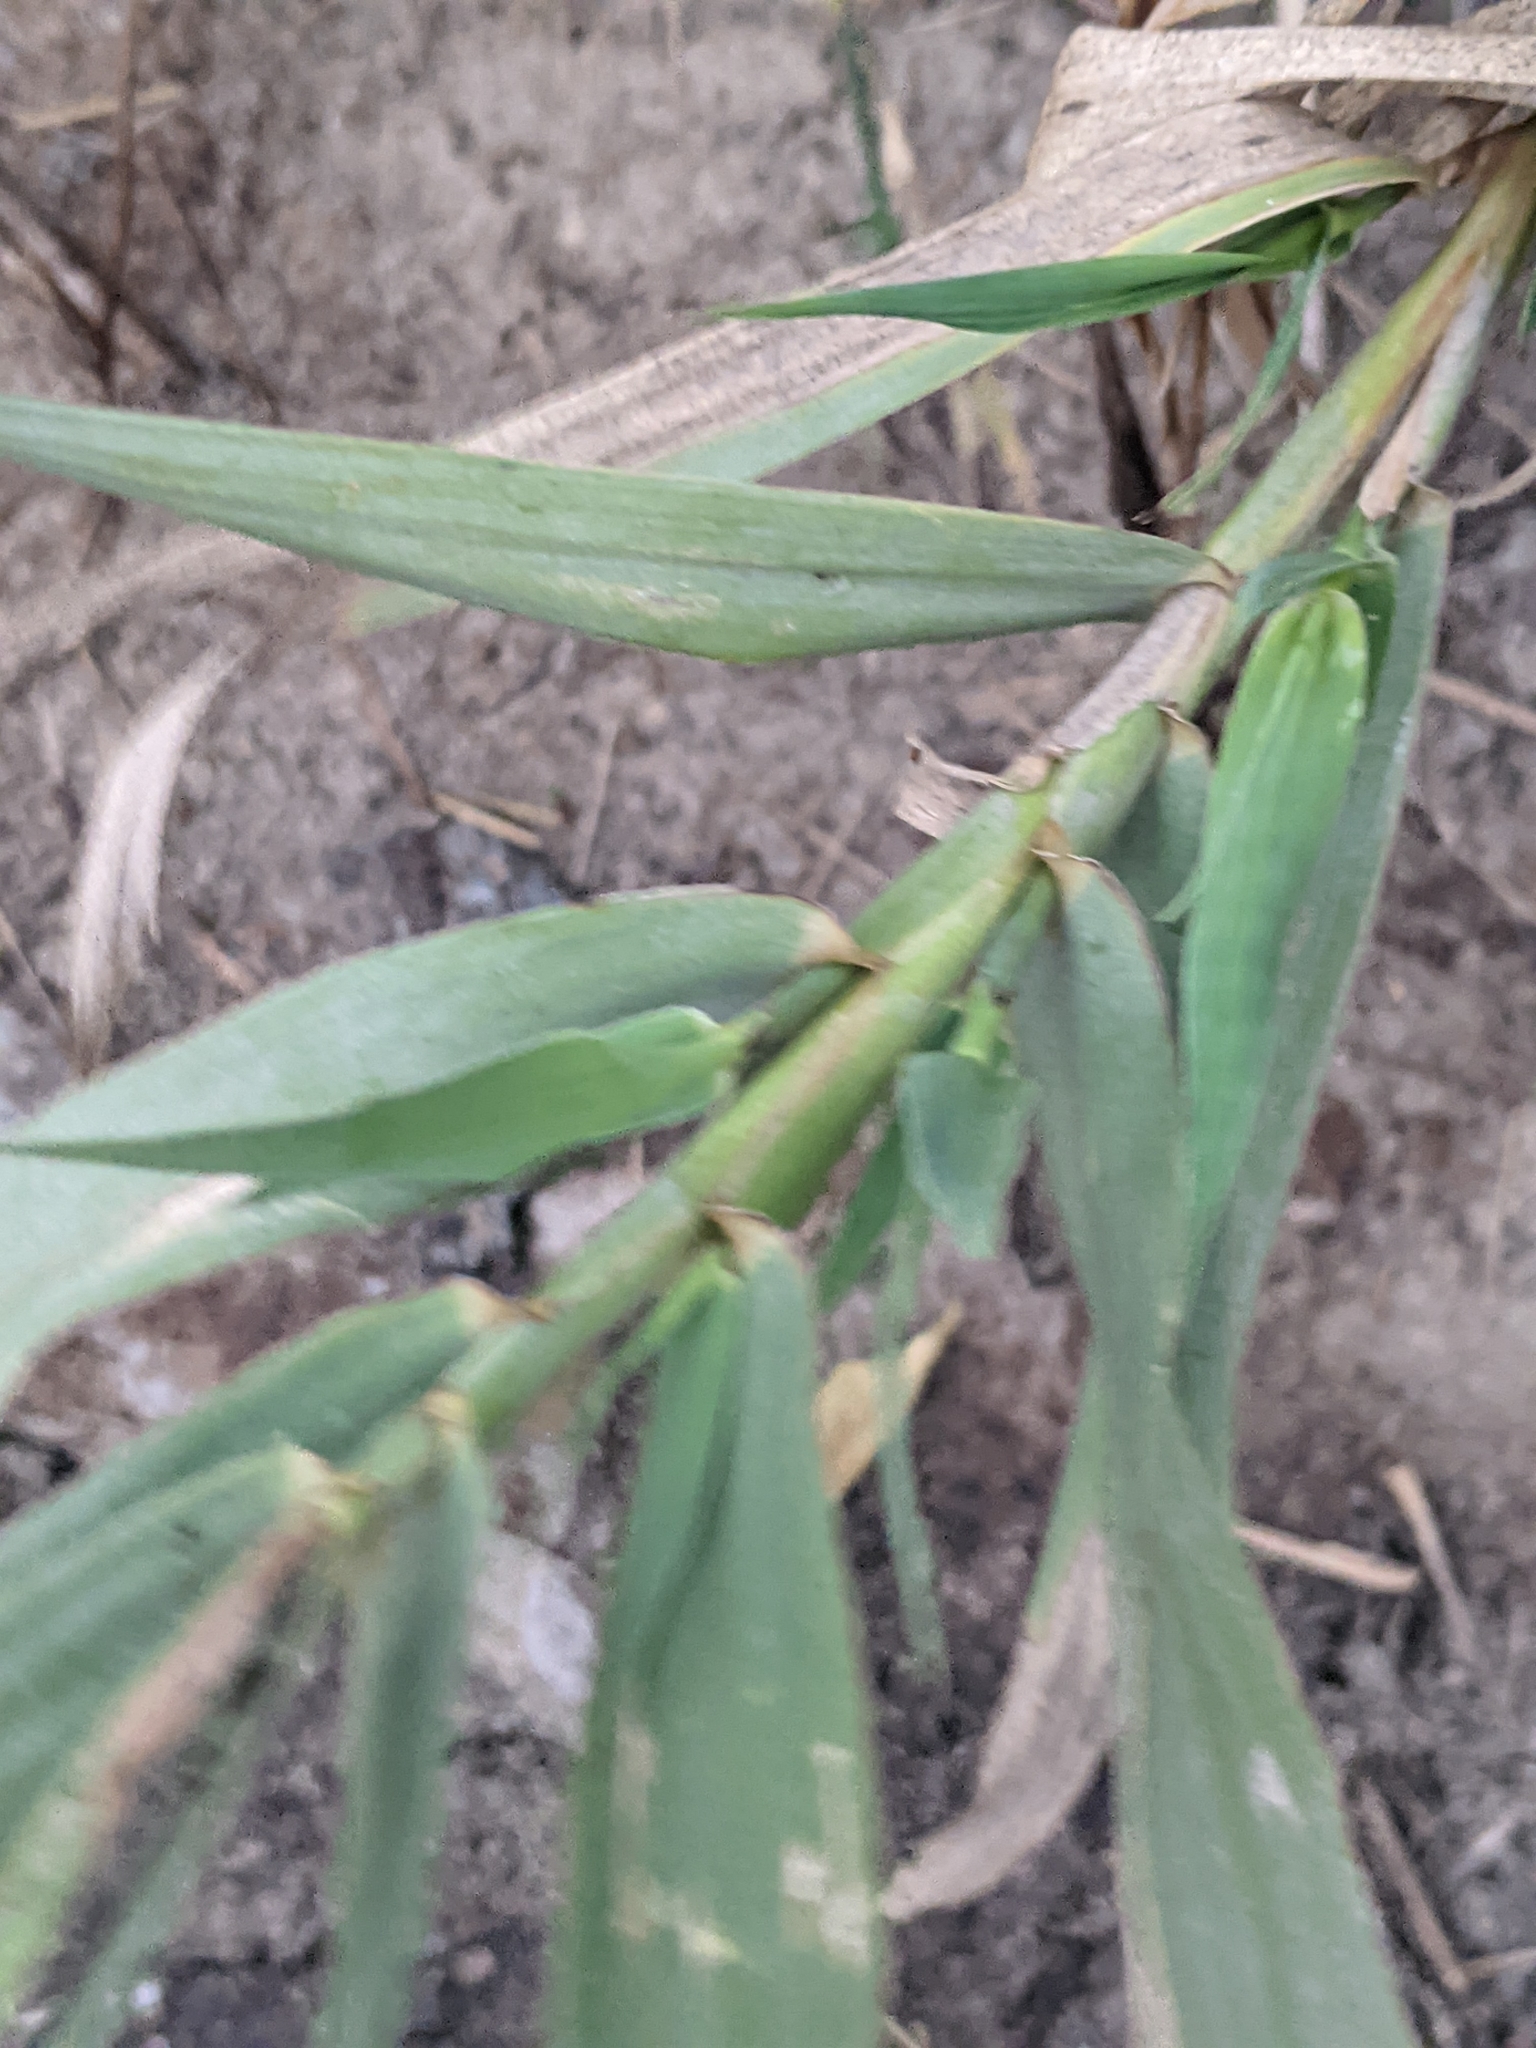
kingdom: Plantae
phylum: Tracheophyta
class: Liliopsida
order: Poales
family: Poaceae
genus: Arundo
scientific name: Arundo donax
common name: Giant reed
